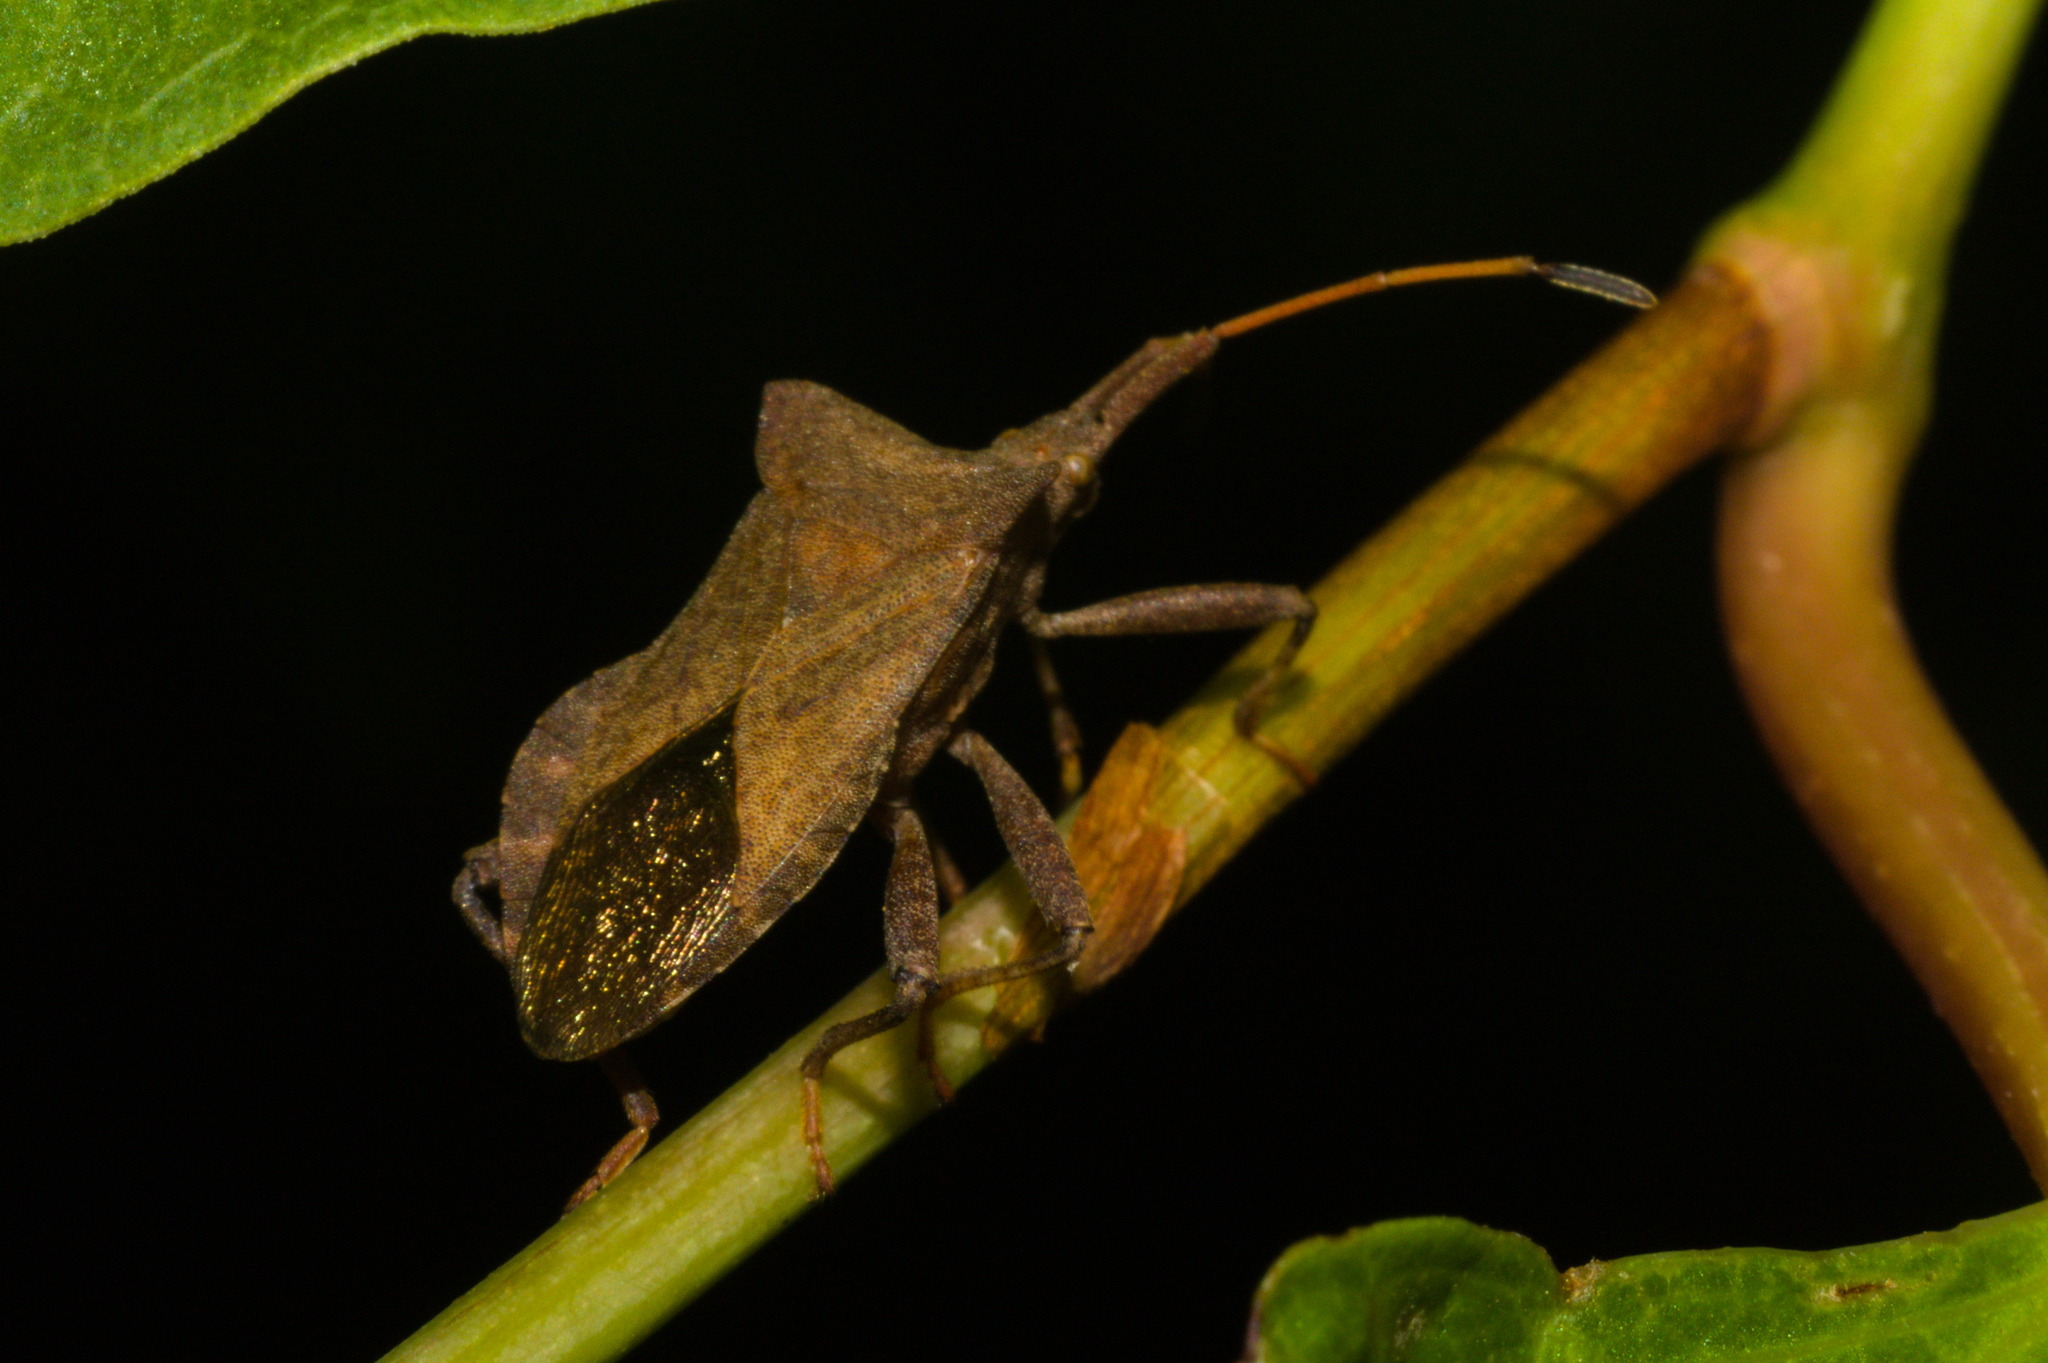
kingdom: Animalia
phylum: Arthropoda
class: Insecta
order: Hemiptera
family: Coreidae
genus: Coreus
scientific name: Coreus marginatus
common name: Dock bug
